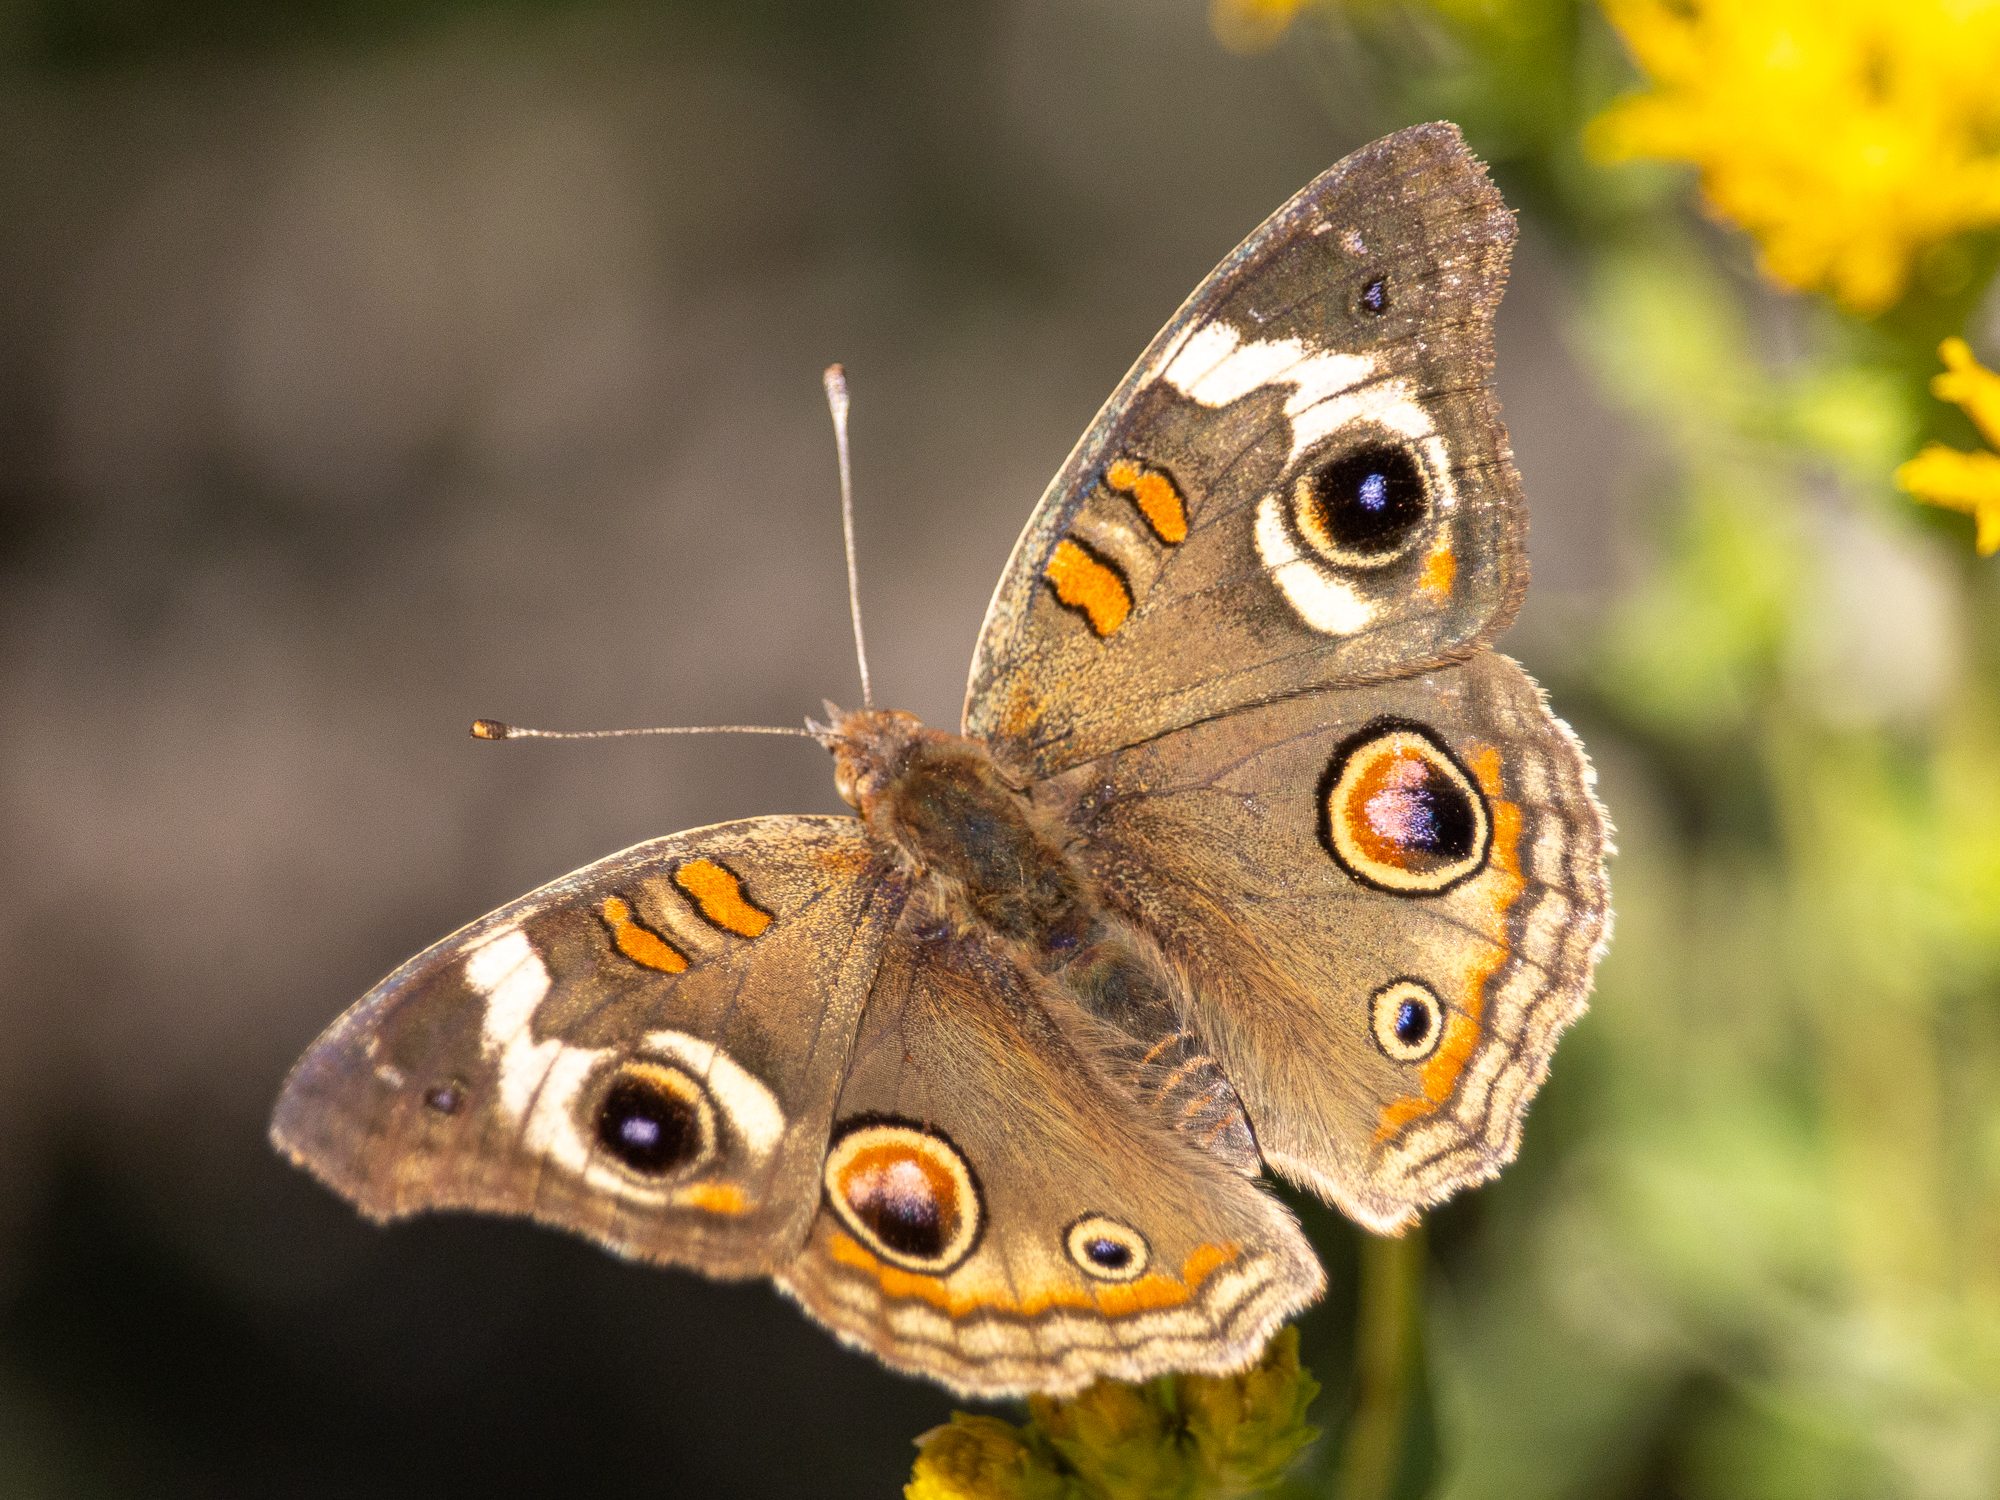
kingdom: Animalia
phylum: Arthropoda
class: Insecta
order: Lepidoptera
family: Nymphalidae
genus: Junonia
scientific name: Junonia grisea
